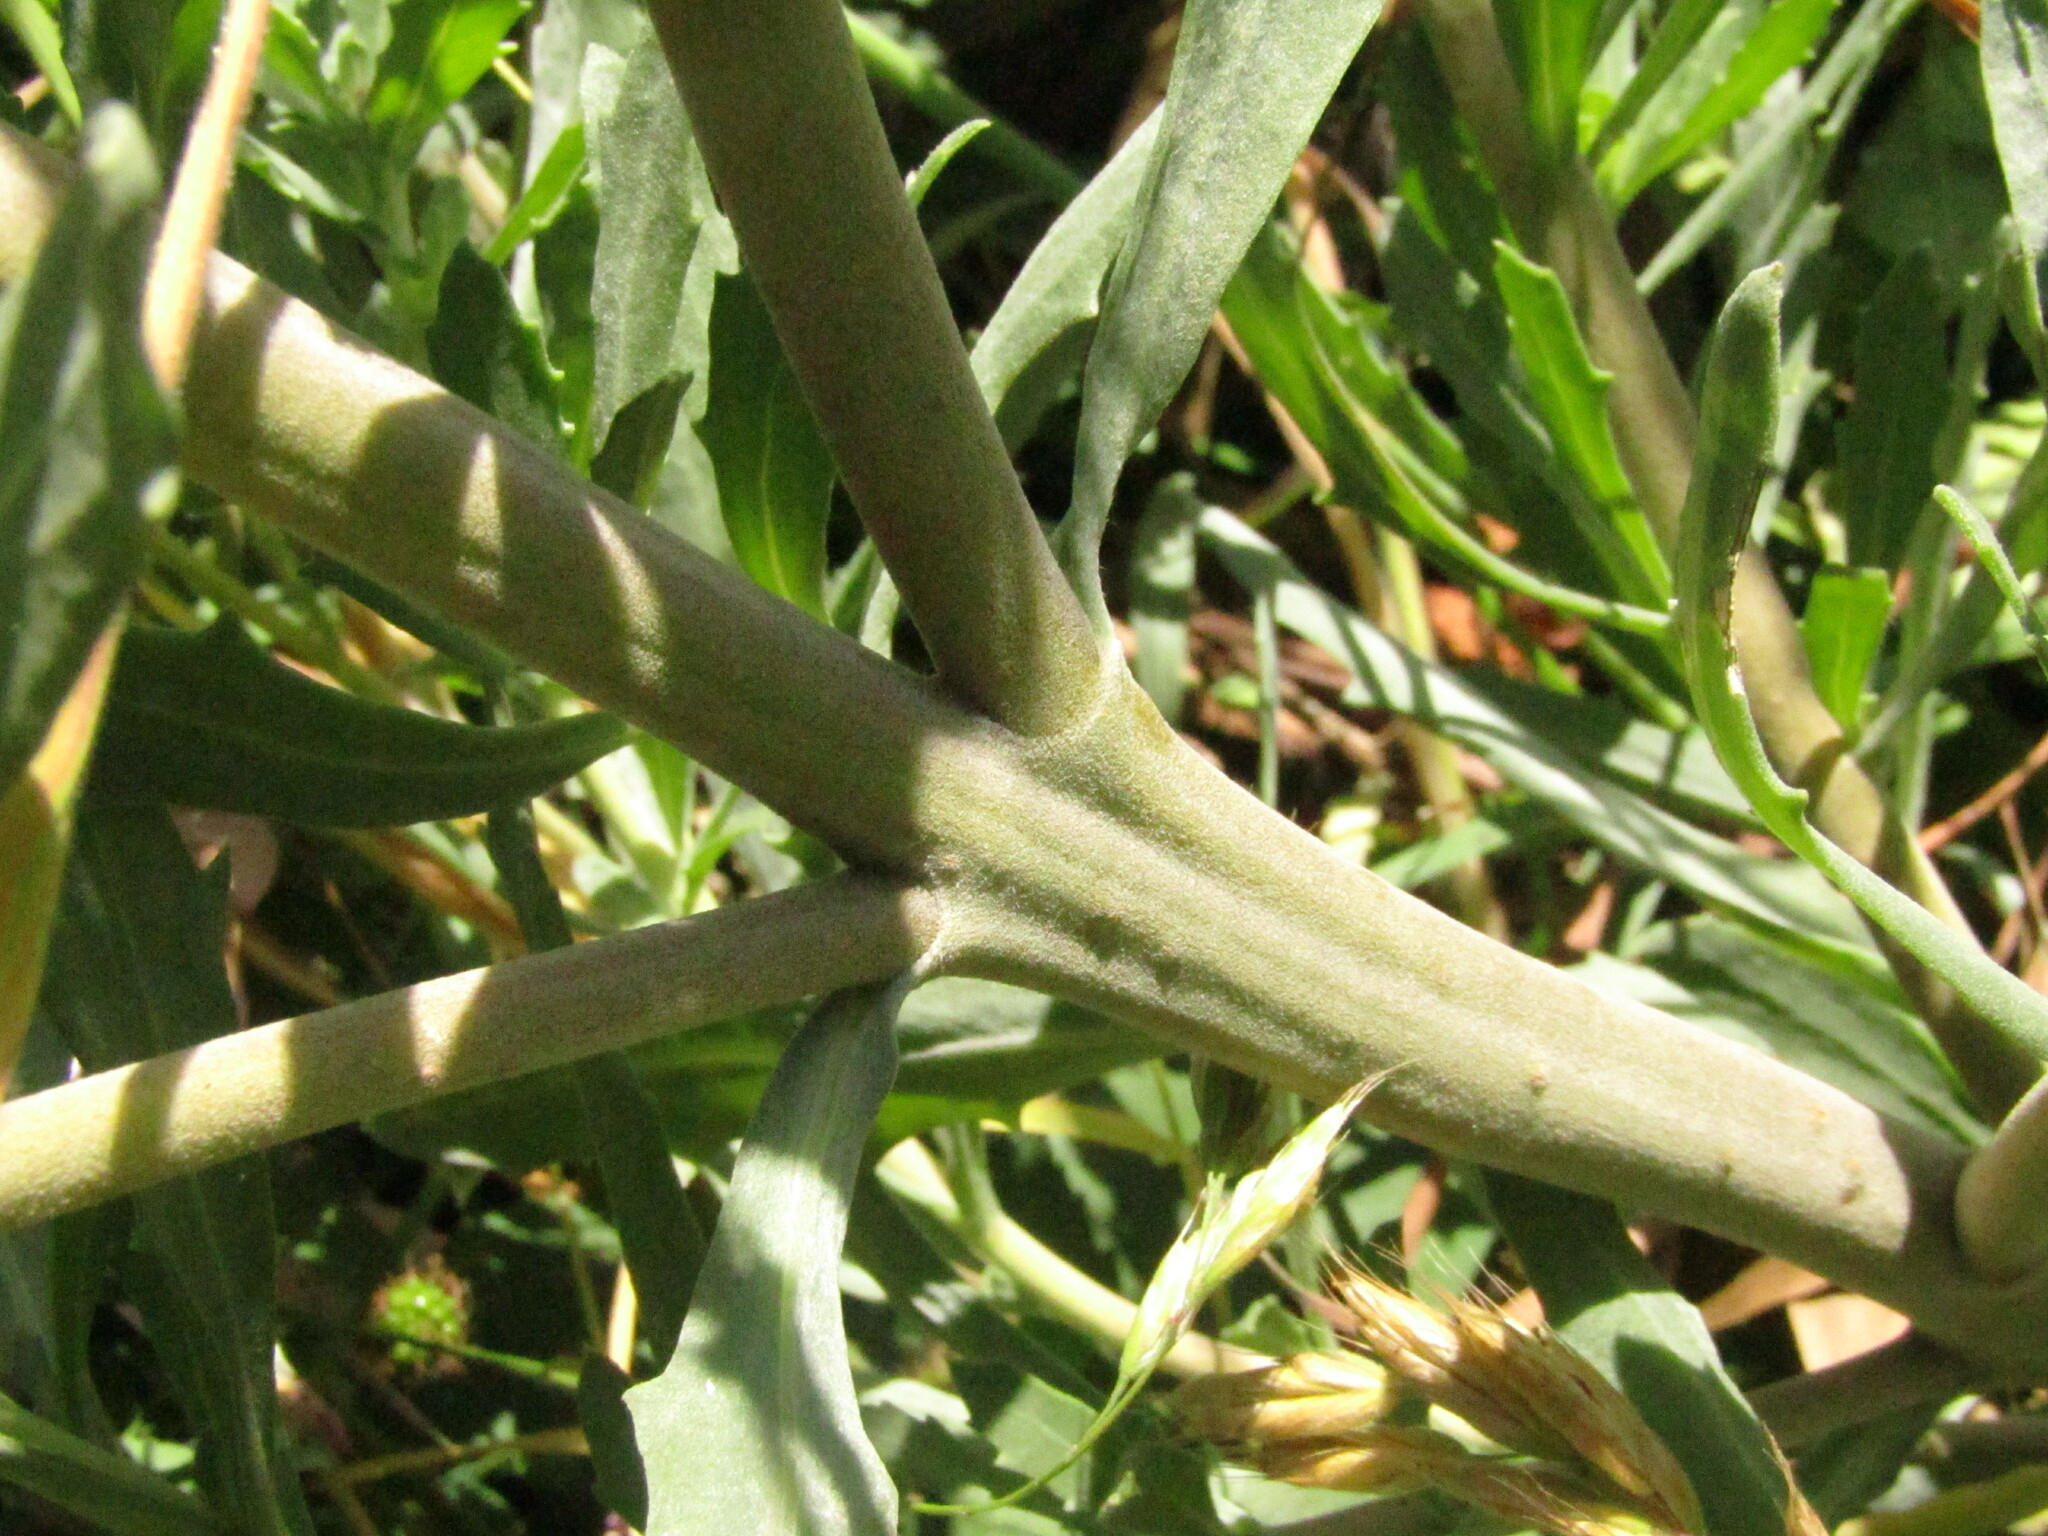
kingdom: Plantae
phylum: Tracheophyta
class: Magnoliopsida
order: Asterales
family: Asteraceae
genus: Tessaria
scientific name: Tessaria absinthioides
